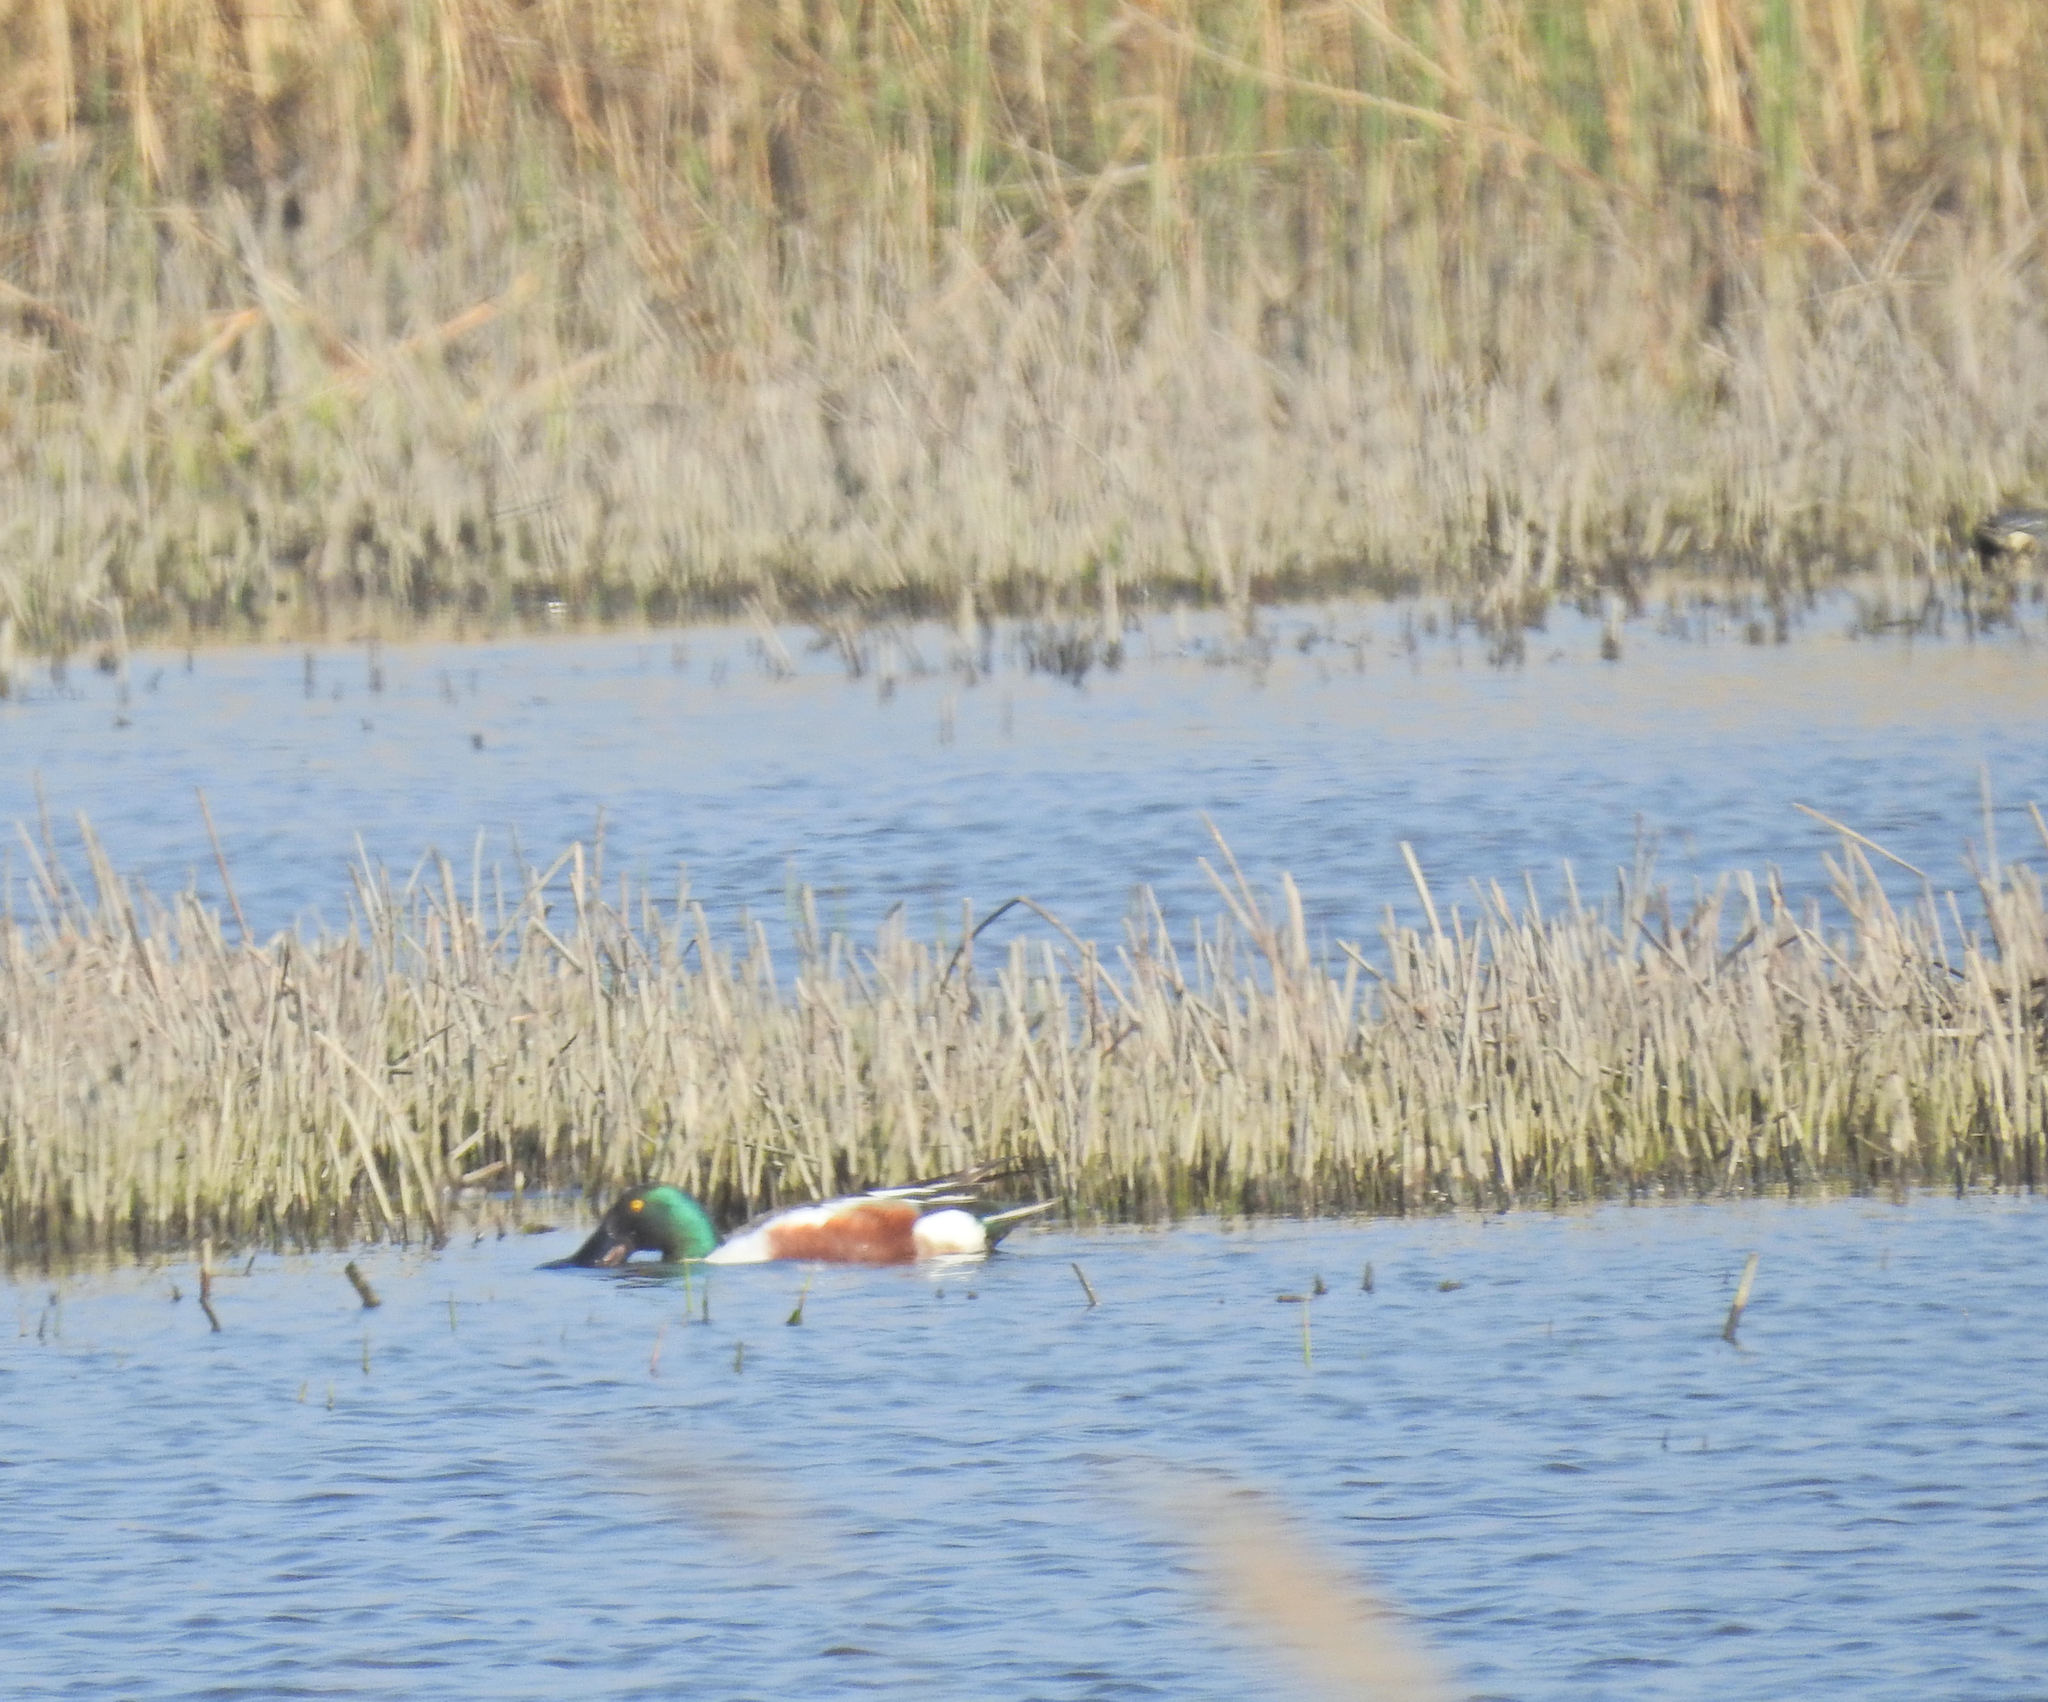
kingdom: Animalia
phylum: Chordata
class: Aves
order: Anseriformes
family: Anatidae
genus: Spatula
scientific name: Spatula clypeata
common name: Northern shoveler
